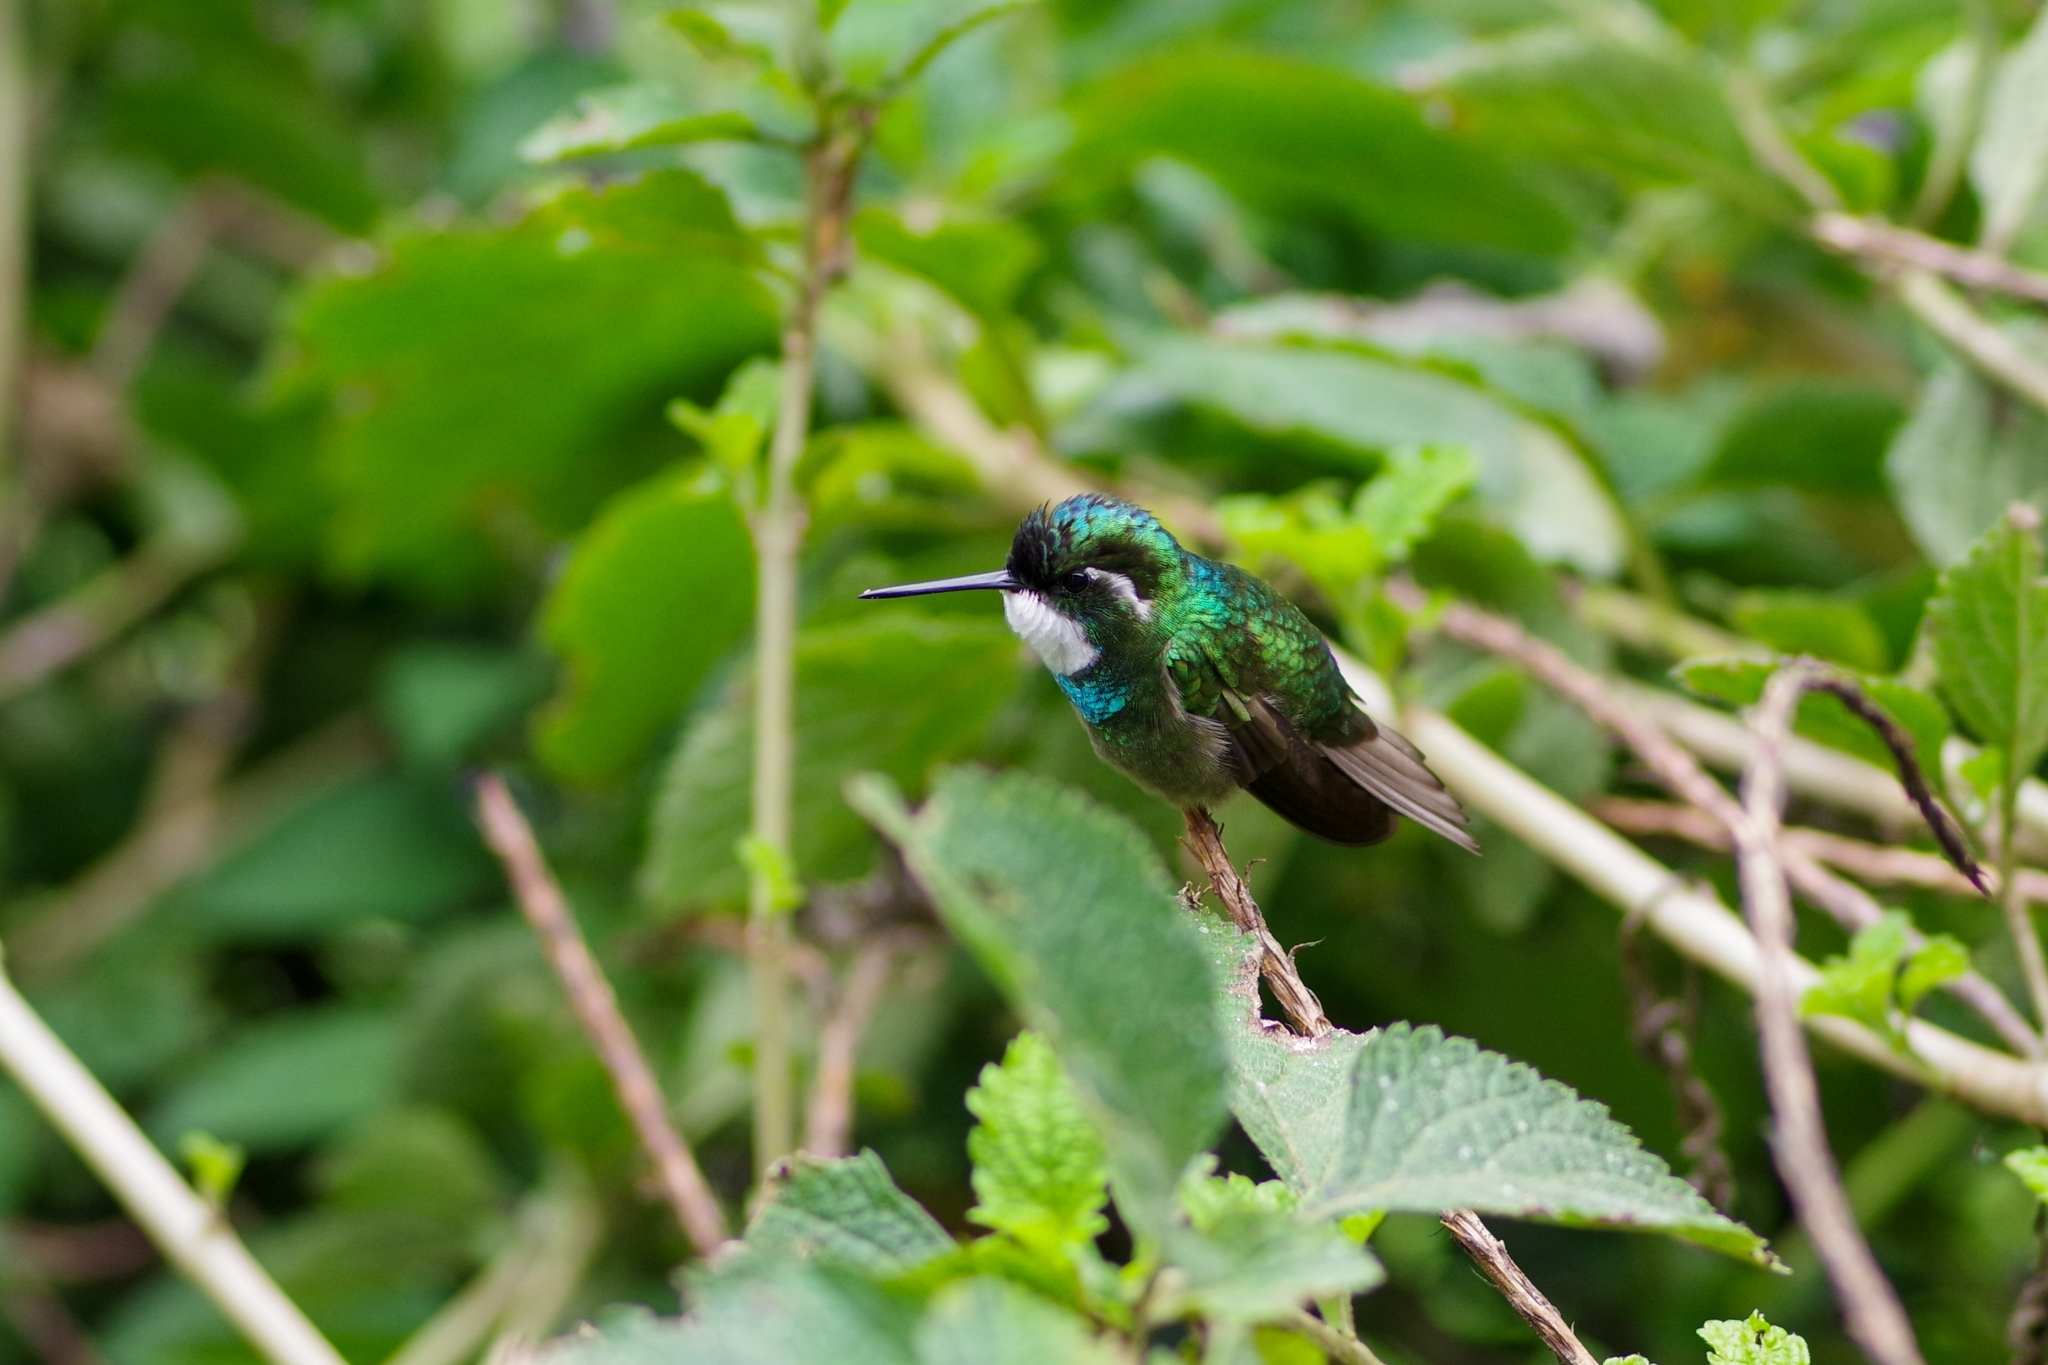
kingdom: Animalia
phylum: Chordata
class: Aves
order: Apodiformes
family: Trochilidae
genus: Lampornis
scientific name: Lampornis castaneoventris
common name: White-throated mountain-gem
